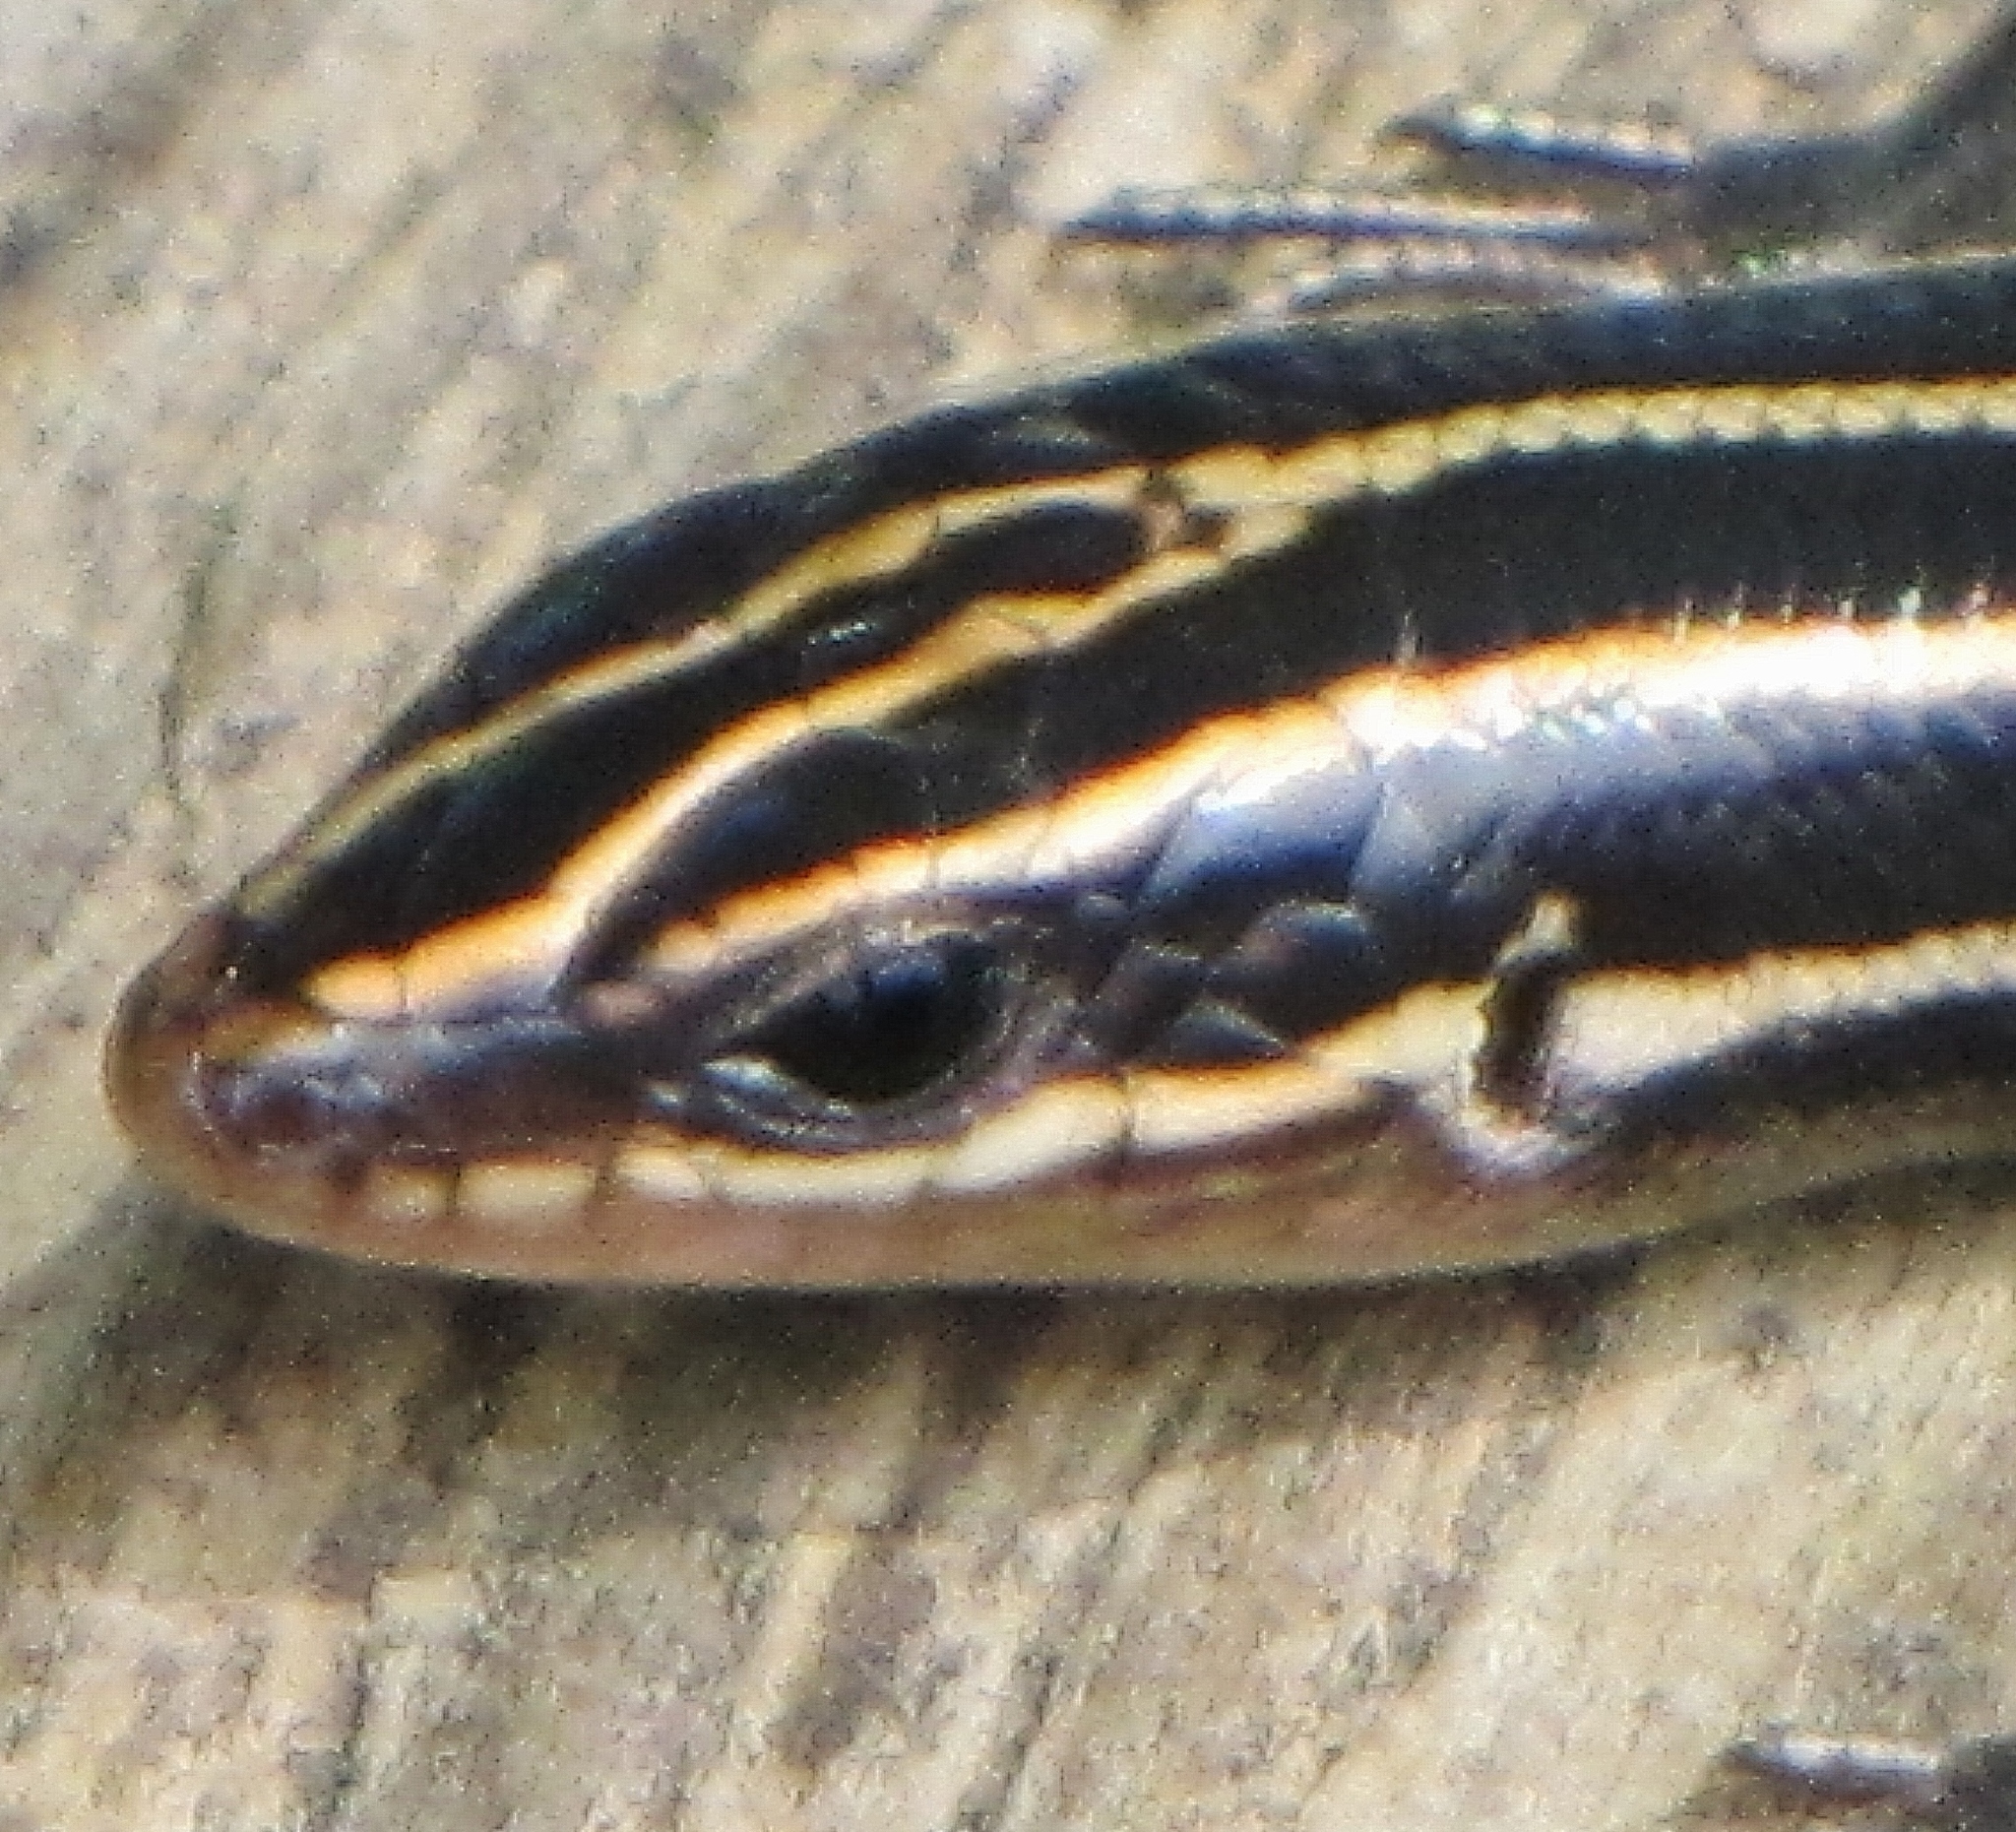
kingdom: Animalia
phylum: Chordata
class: Squamata
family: Scincidae
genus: Plestiodon
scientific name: Plestiodon fasciatus
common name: Five-lined skink
